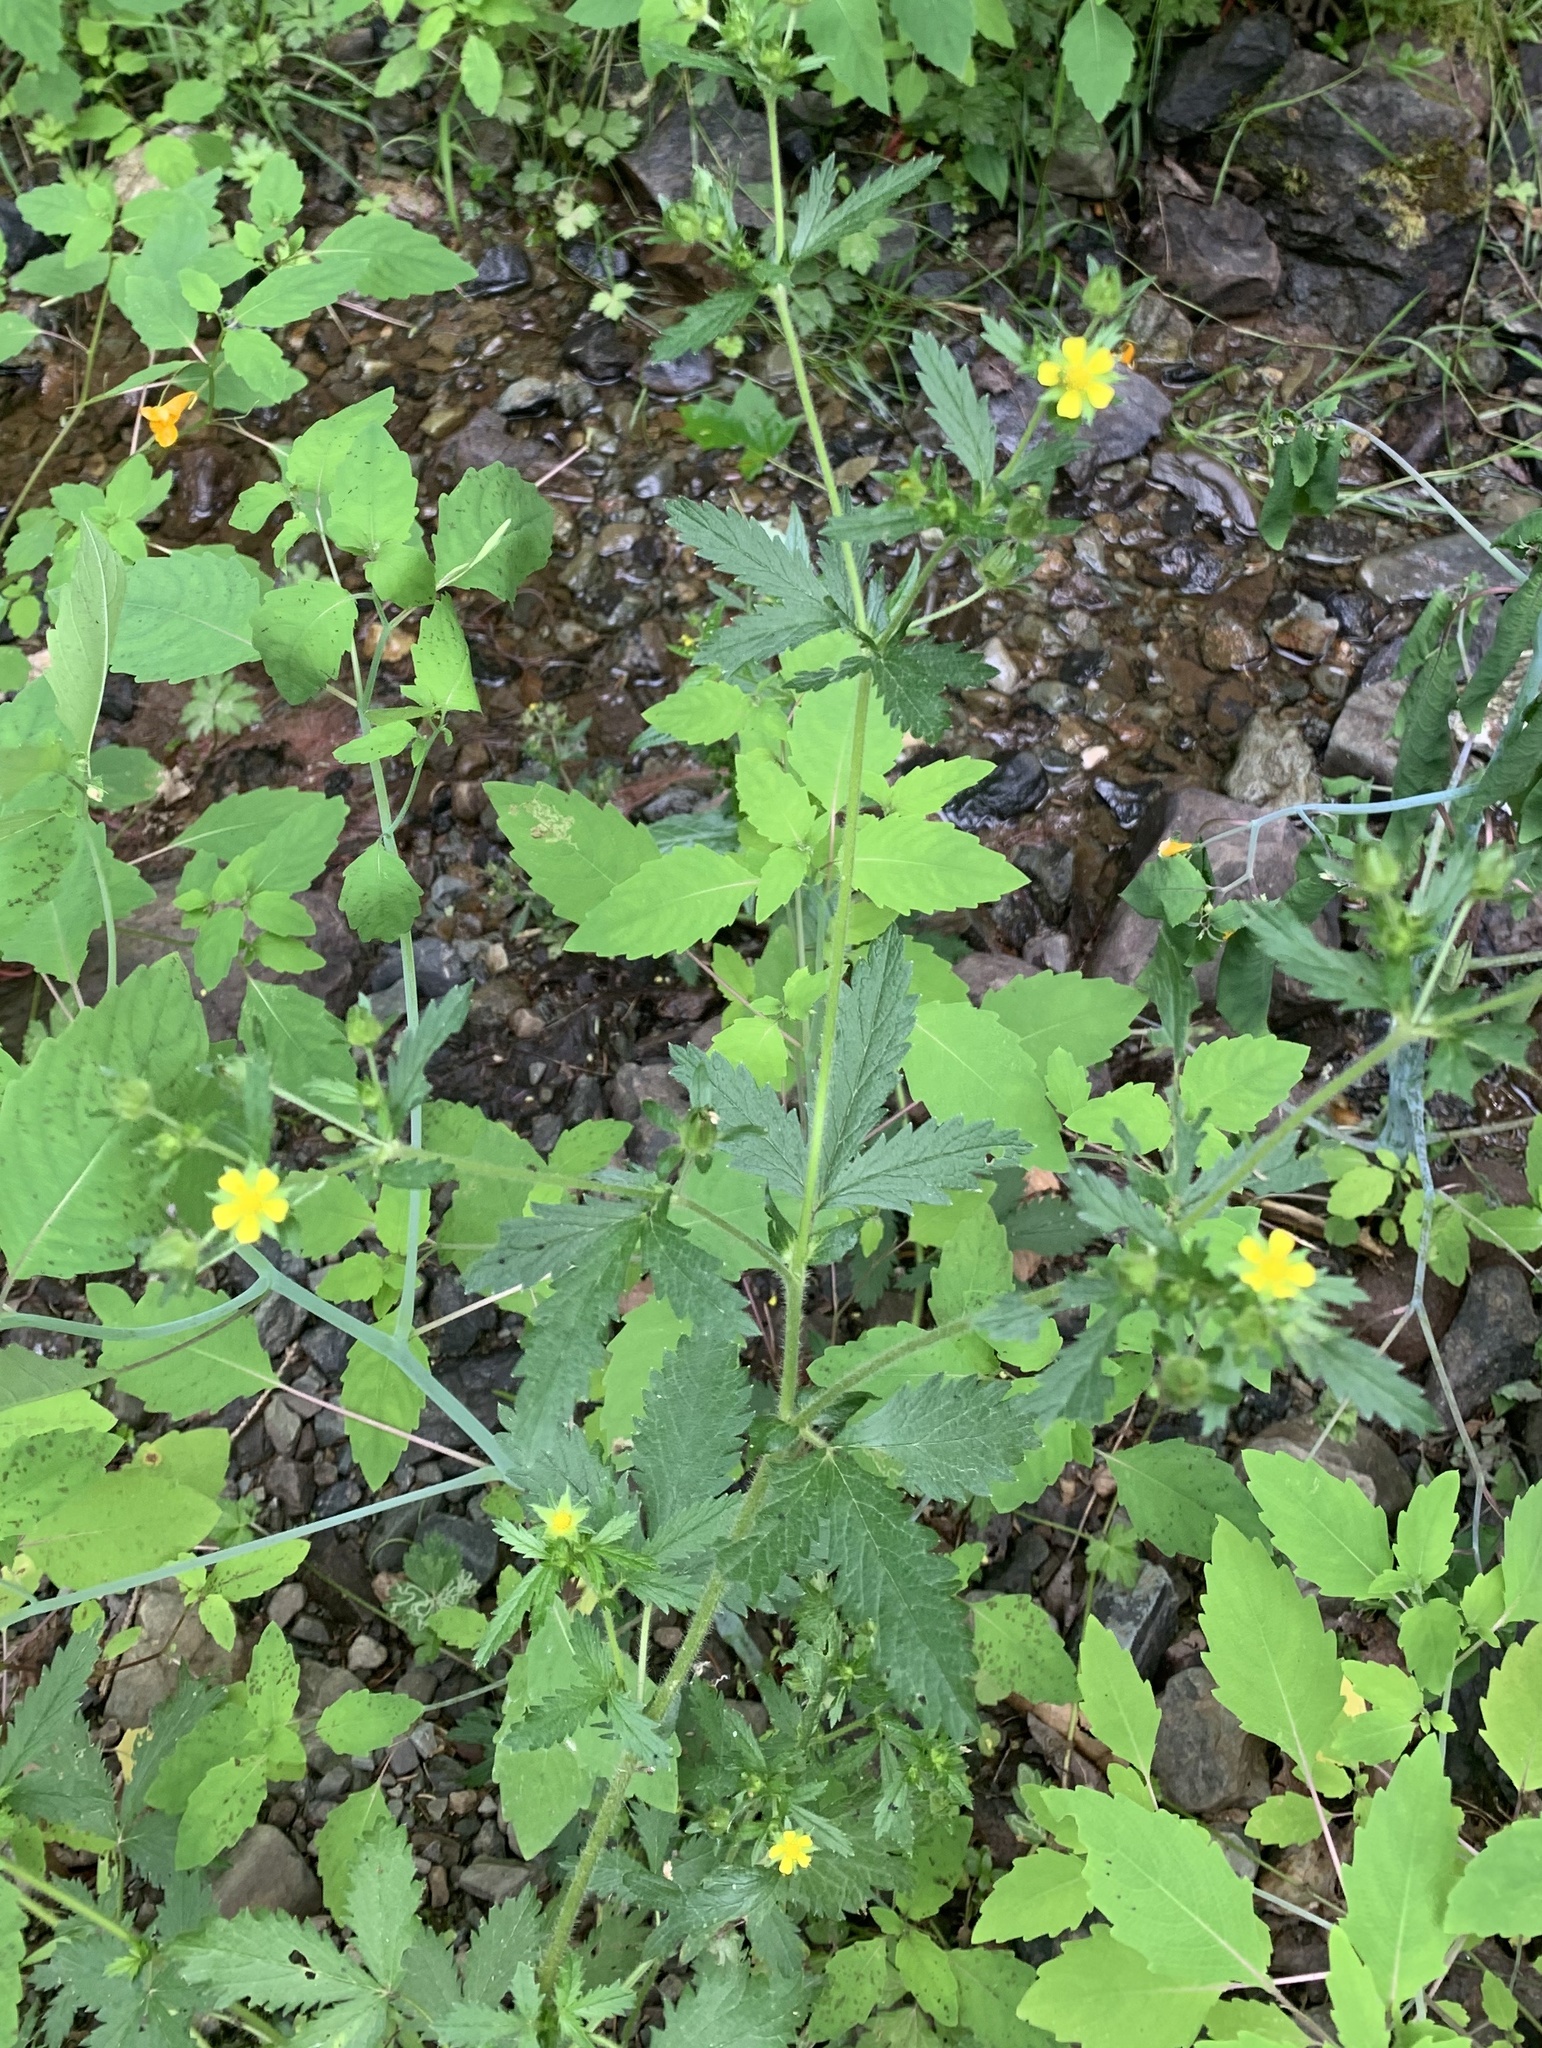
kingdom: Plantae
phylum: Tracheophyta
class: Magnoliopsida
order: Rosales
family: Rosaceae
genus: Potentilla
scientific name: Potentilla norvegica
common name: Ternate-leaved cinquefoil
